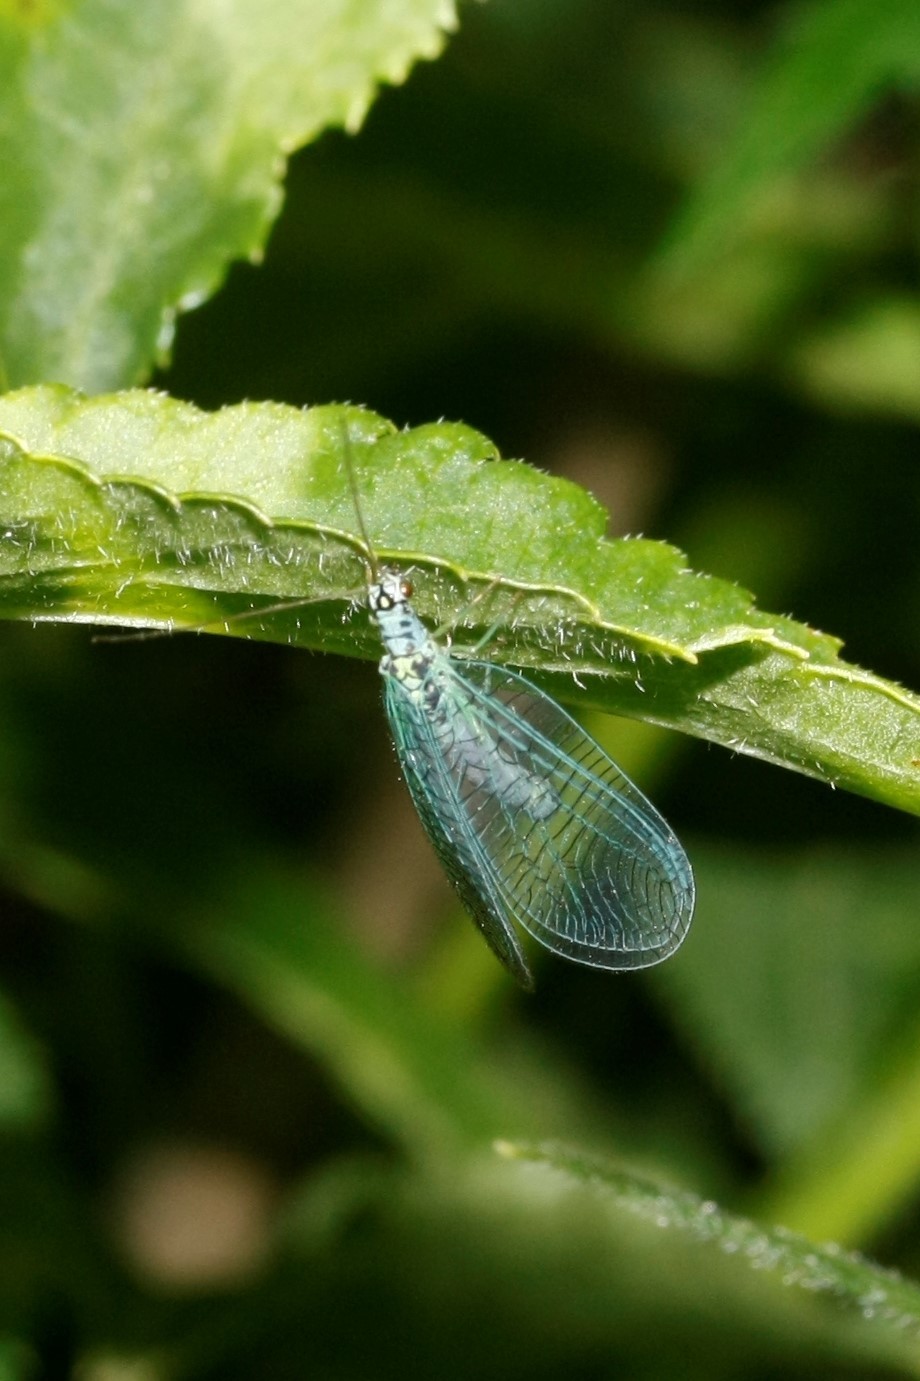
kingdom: Animalia
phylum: Arthropoda
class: Insecta
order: Neuroptera
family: Chrysopidae
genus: Chrysopa
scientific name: Chrysopa perla
